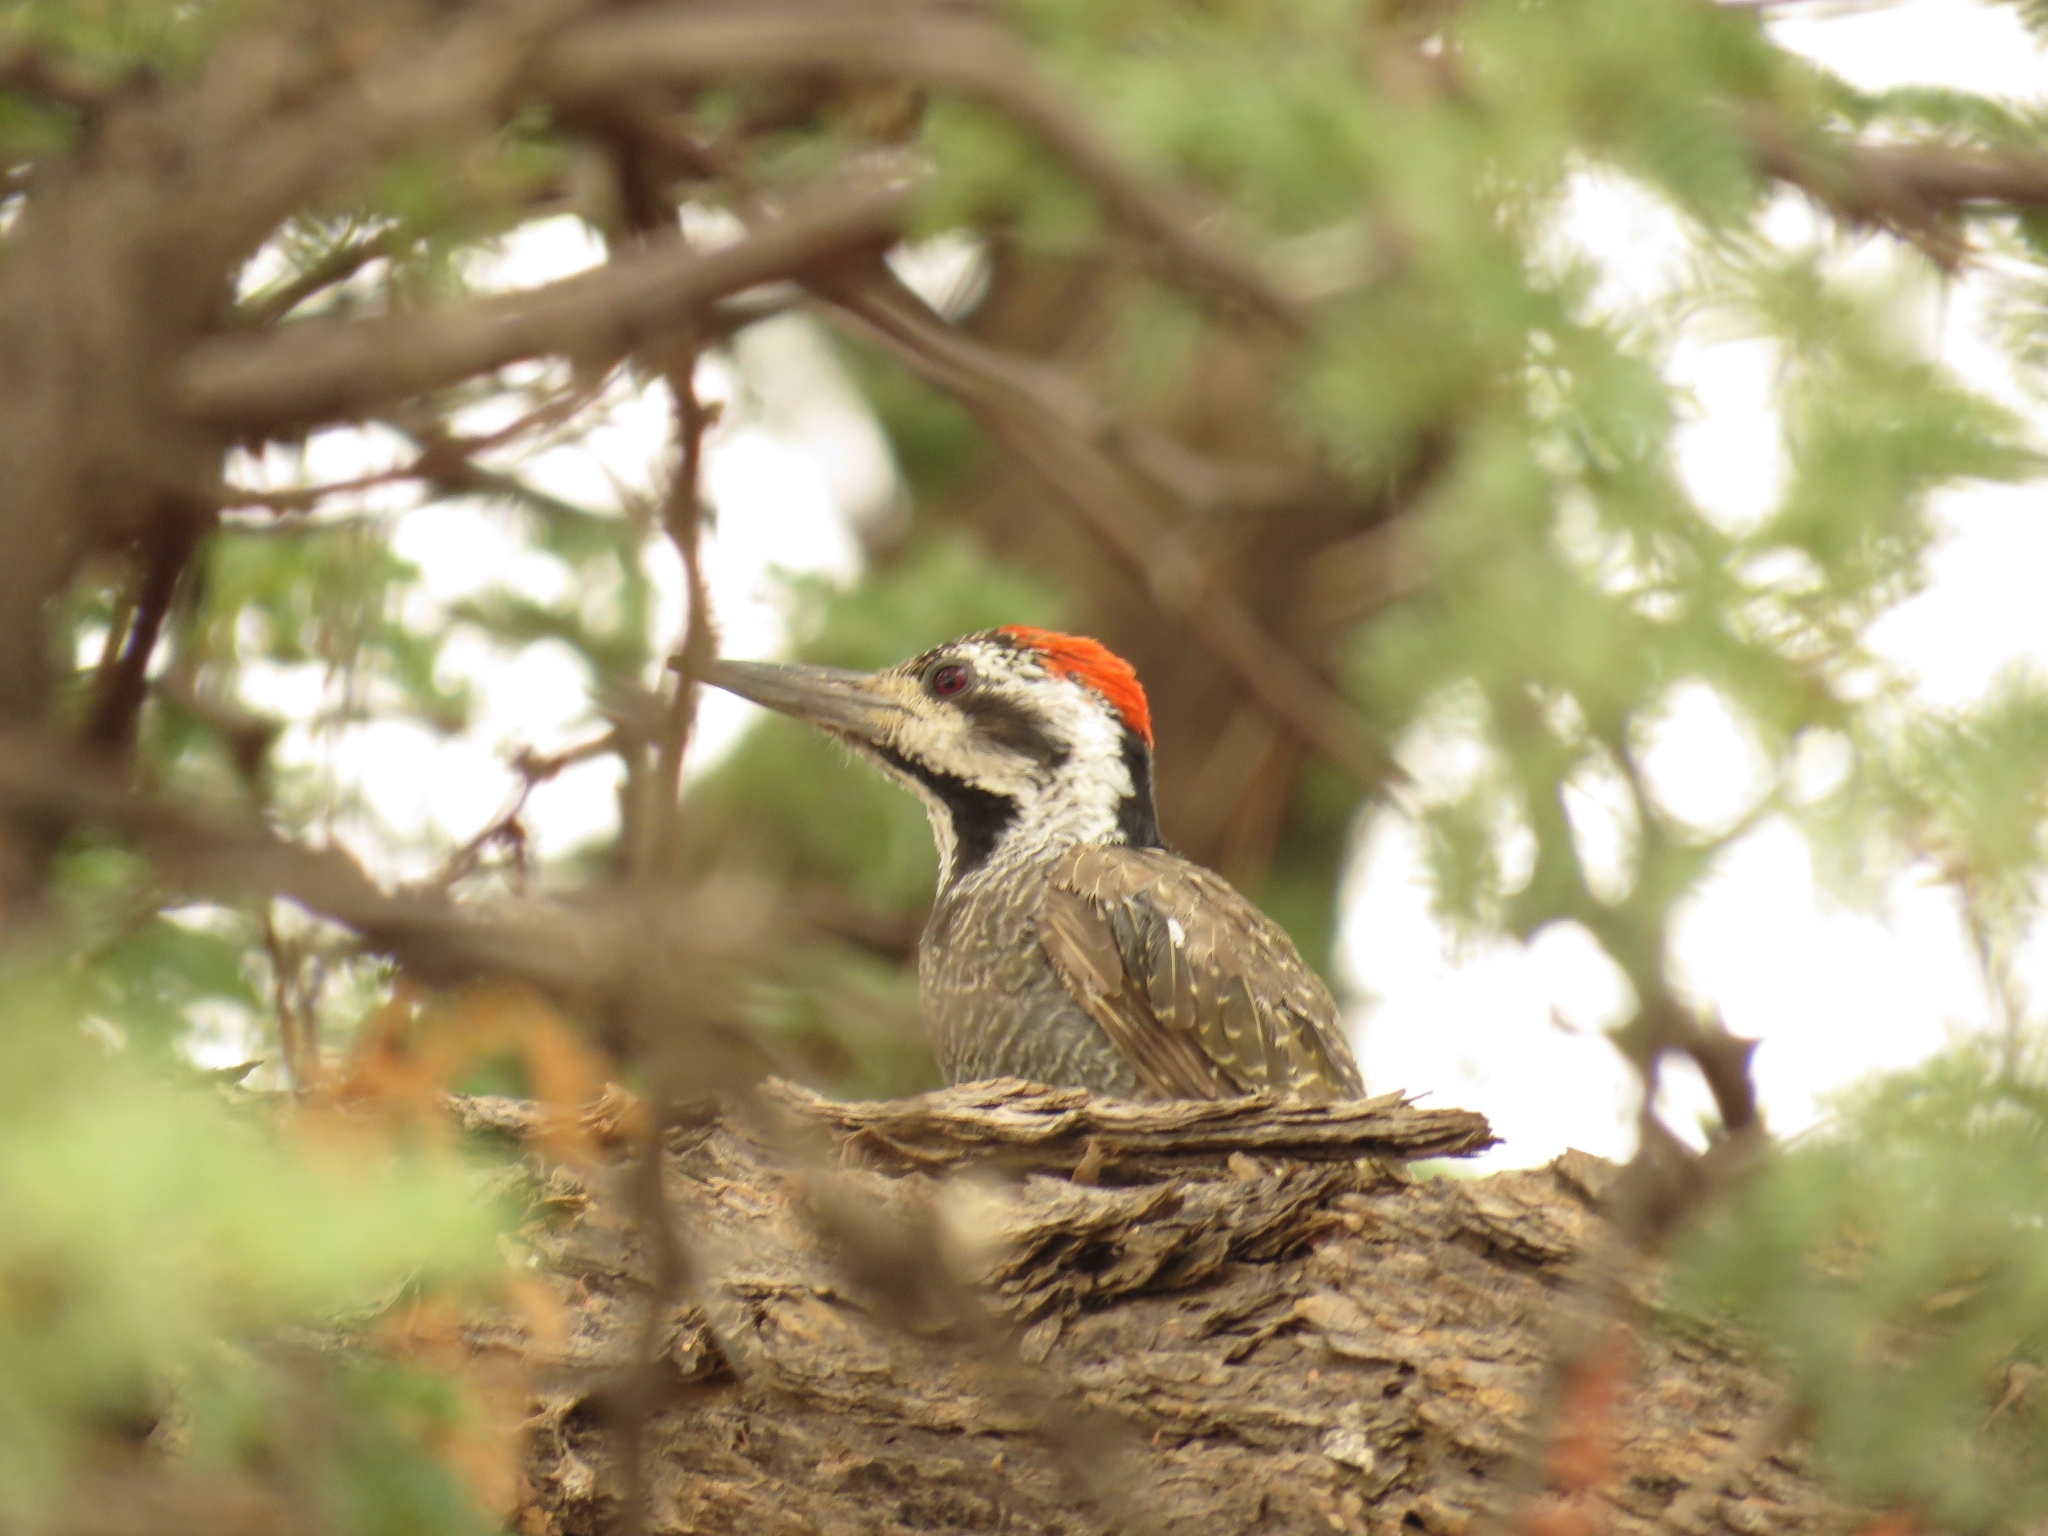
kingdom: Animalia
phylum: Chordata
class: Aves
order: Piciformes
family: Picidae
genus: Chloropicus
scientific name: Chloropicus namaquus
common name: Bearded woodpecker
